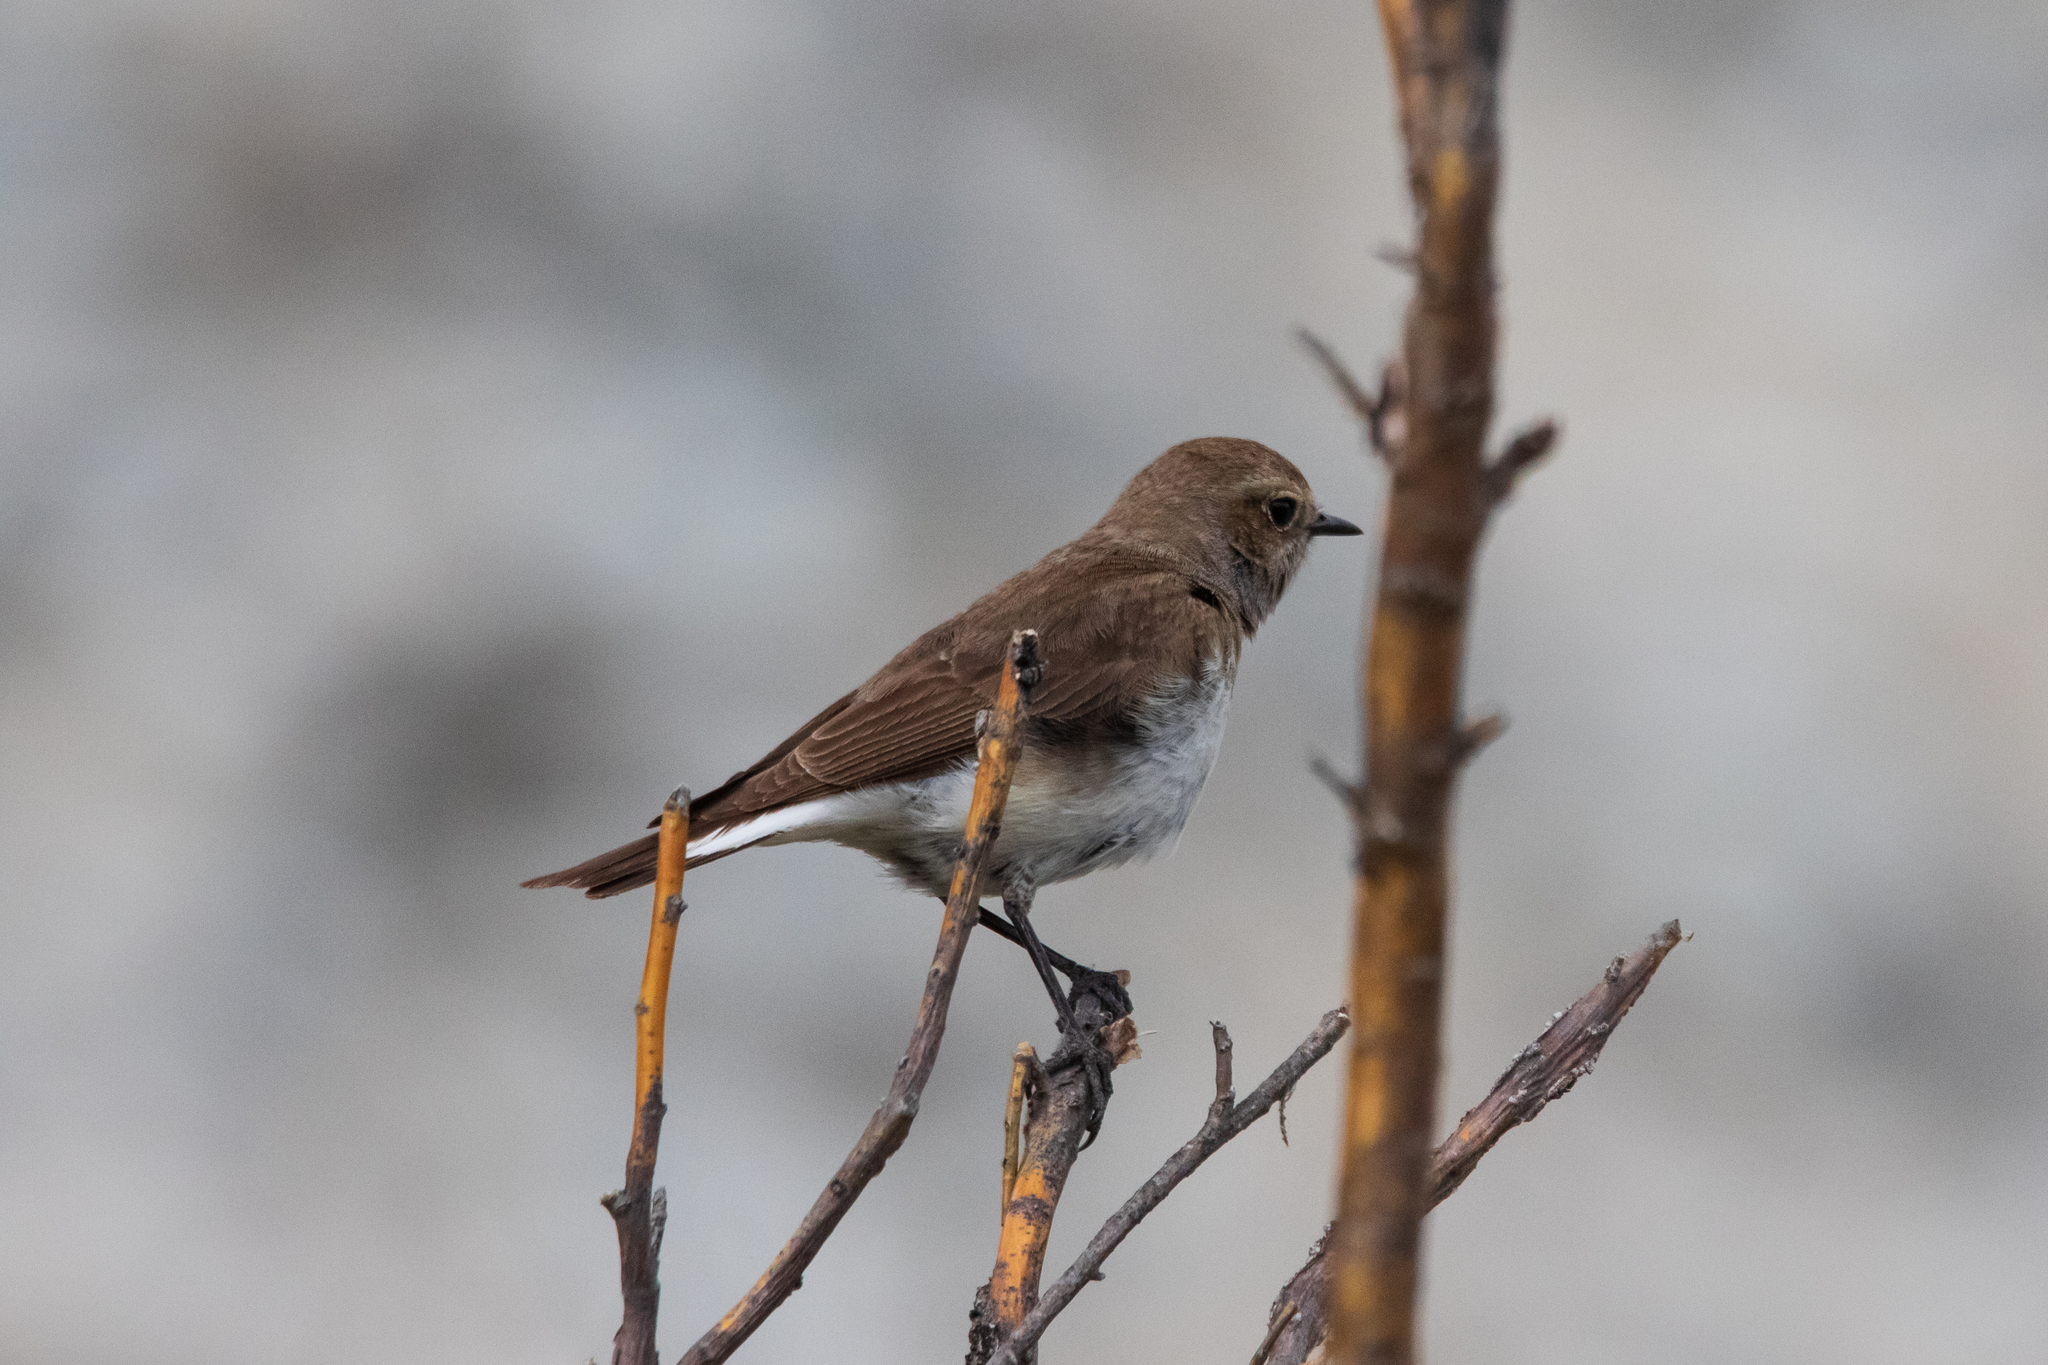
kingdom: Animalia
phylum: Chordata
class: Aves
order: Passeriformes
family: Muscicapidae
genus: Oenanthe
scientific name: Oenanthe pleschanka
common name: Pied wheatear
